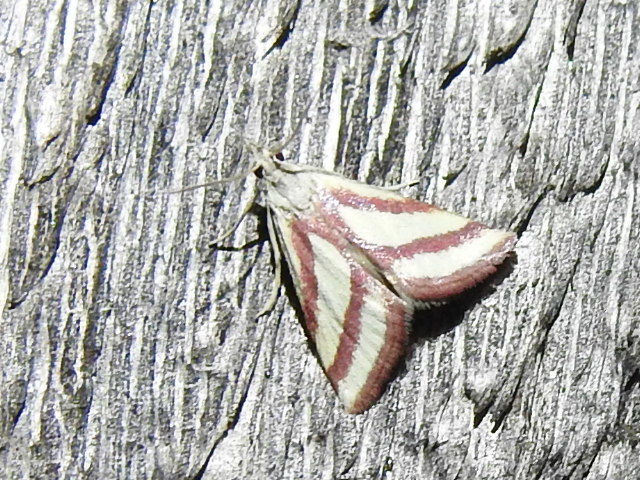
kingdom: Animalia
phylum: Arthropoda
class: Insecta
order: Lepidoptera
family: Crambidae
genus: Microtheoris
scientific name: Microtheoris vibicalis
